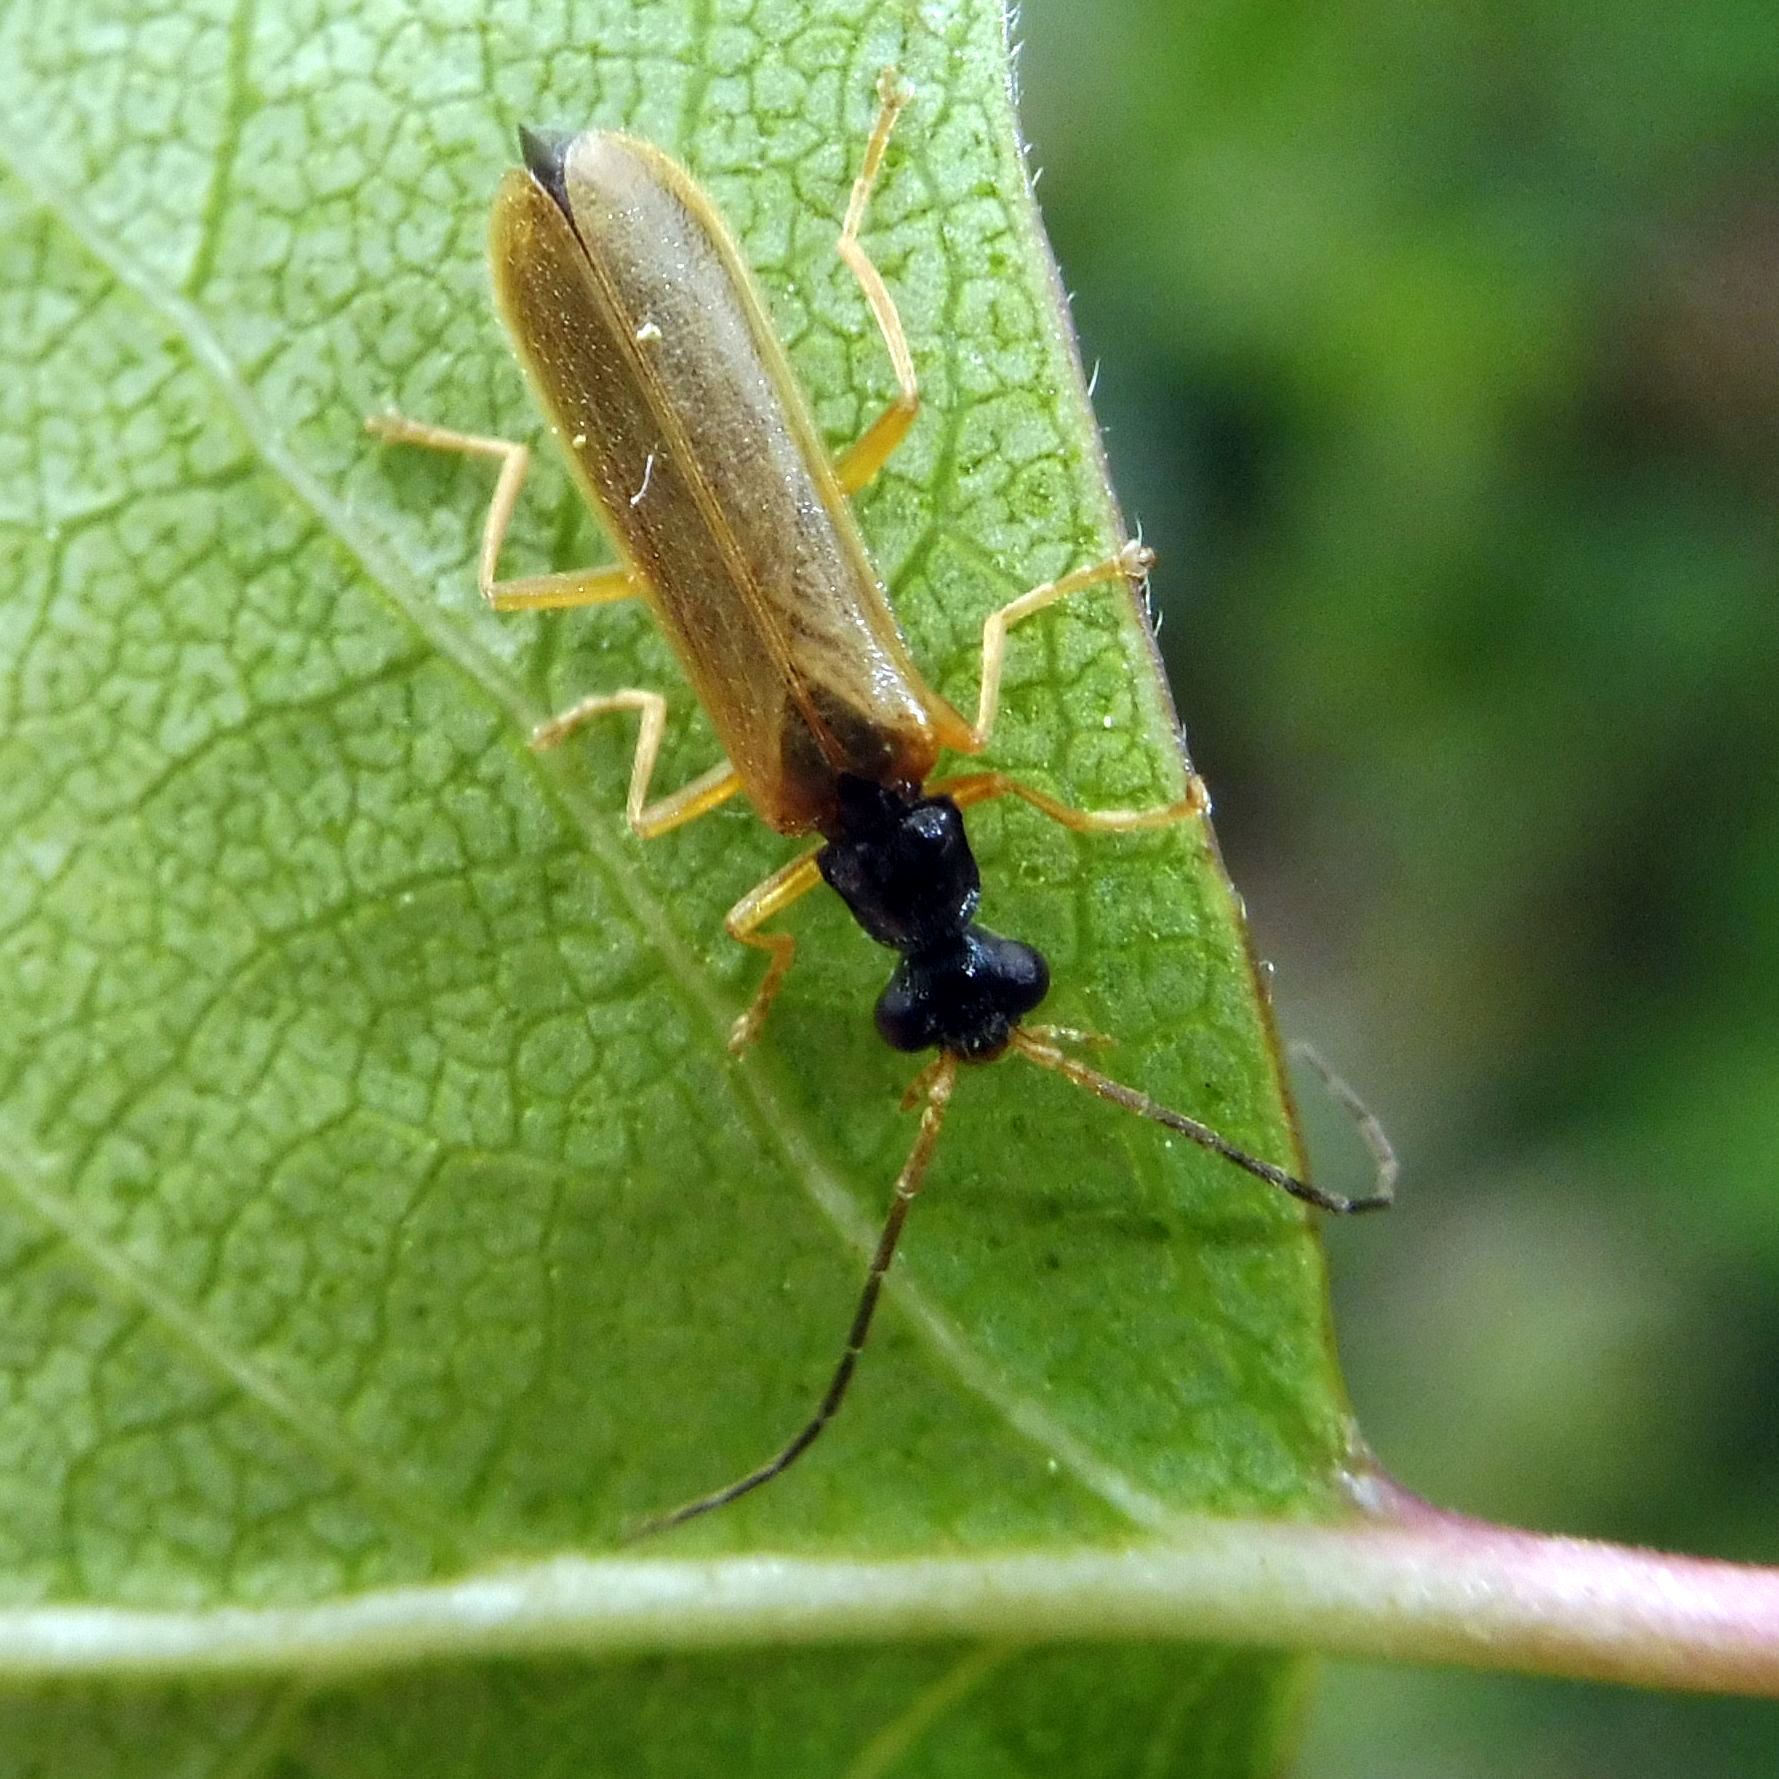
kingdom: Animalia
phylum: Arthropoda
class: Insecta
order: Coleoptera
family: Cantharidae
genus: Rhagonycha
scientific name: Rhagonycha lignosa
